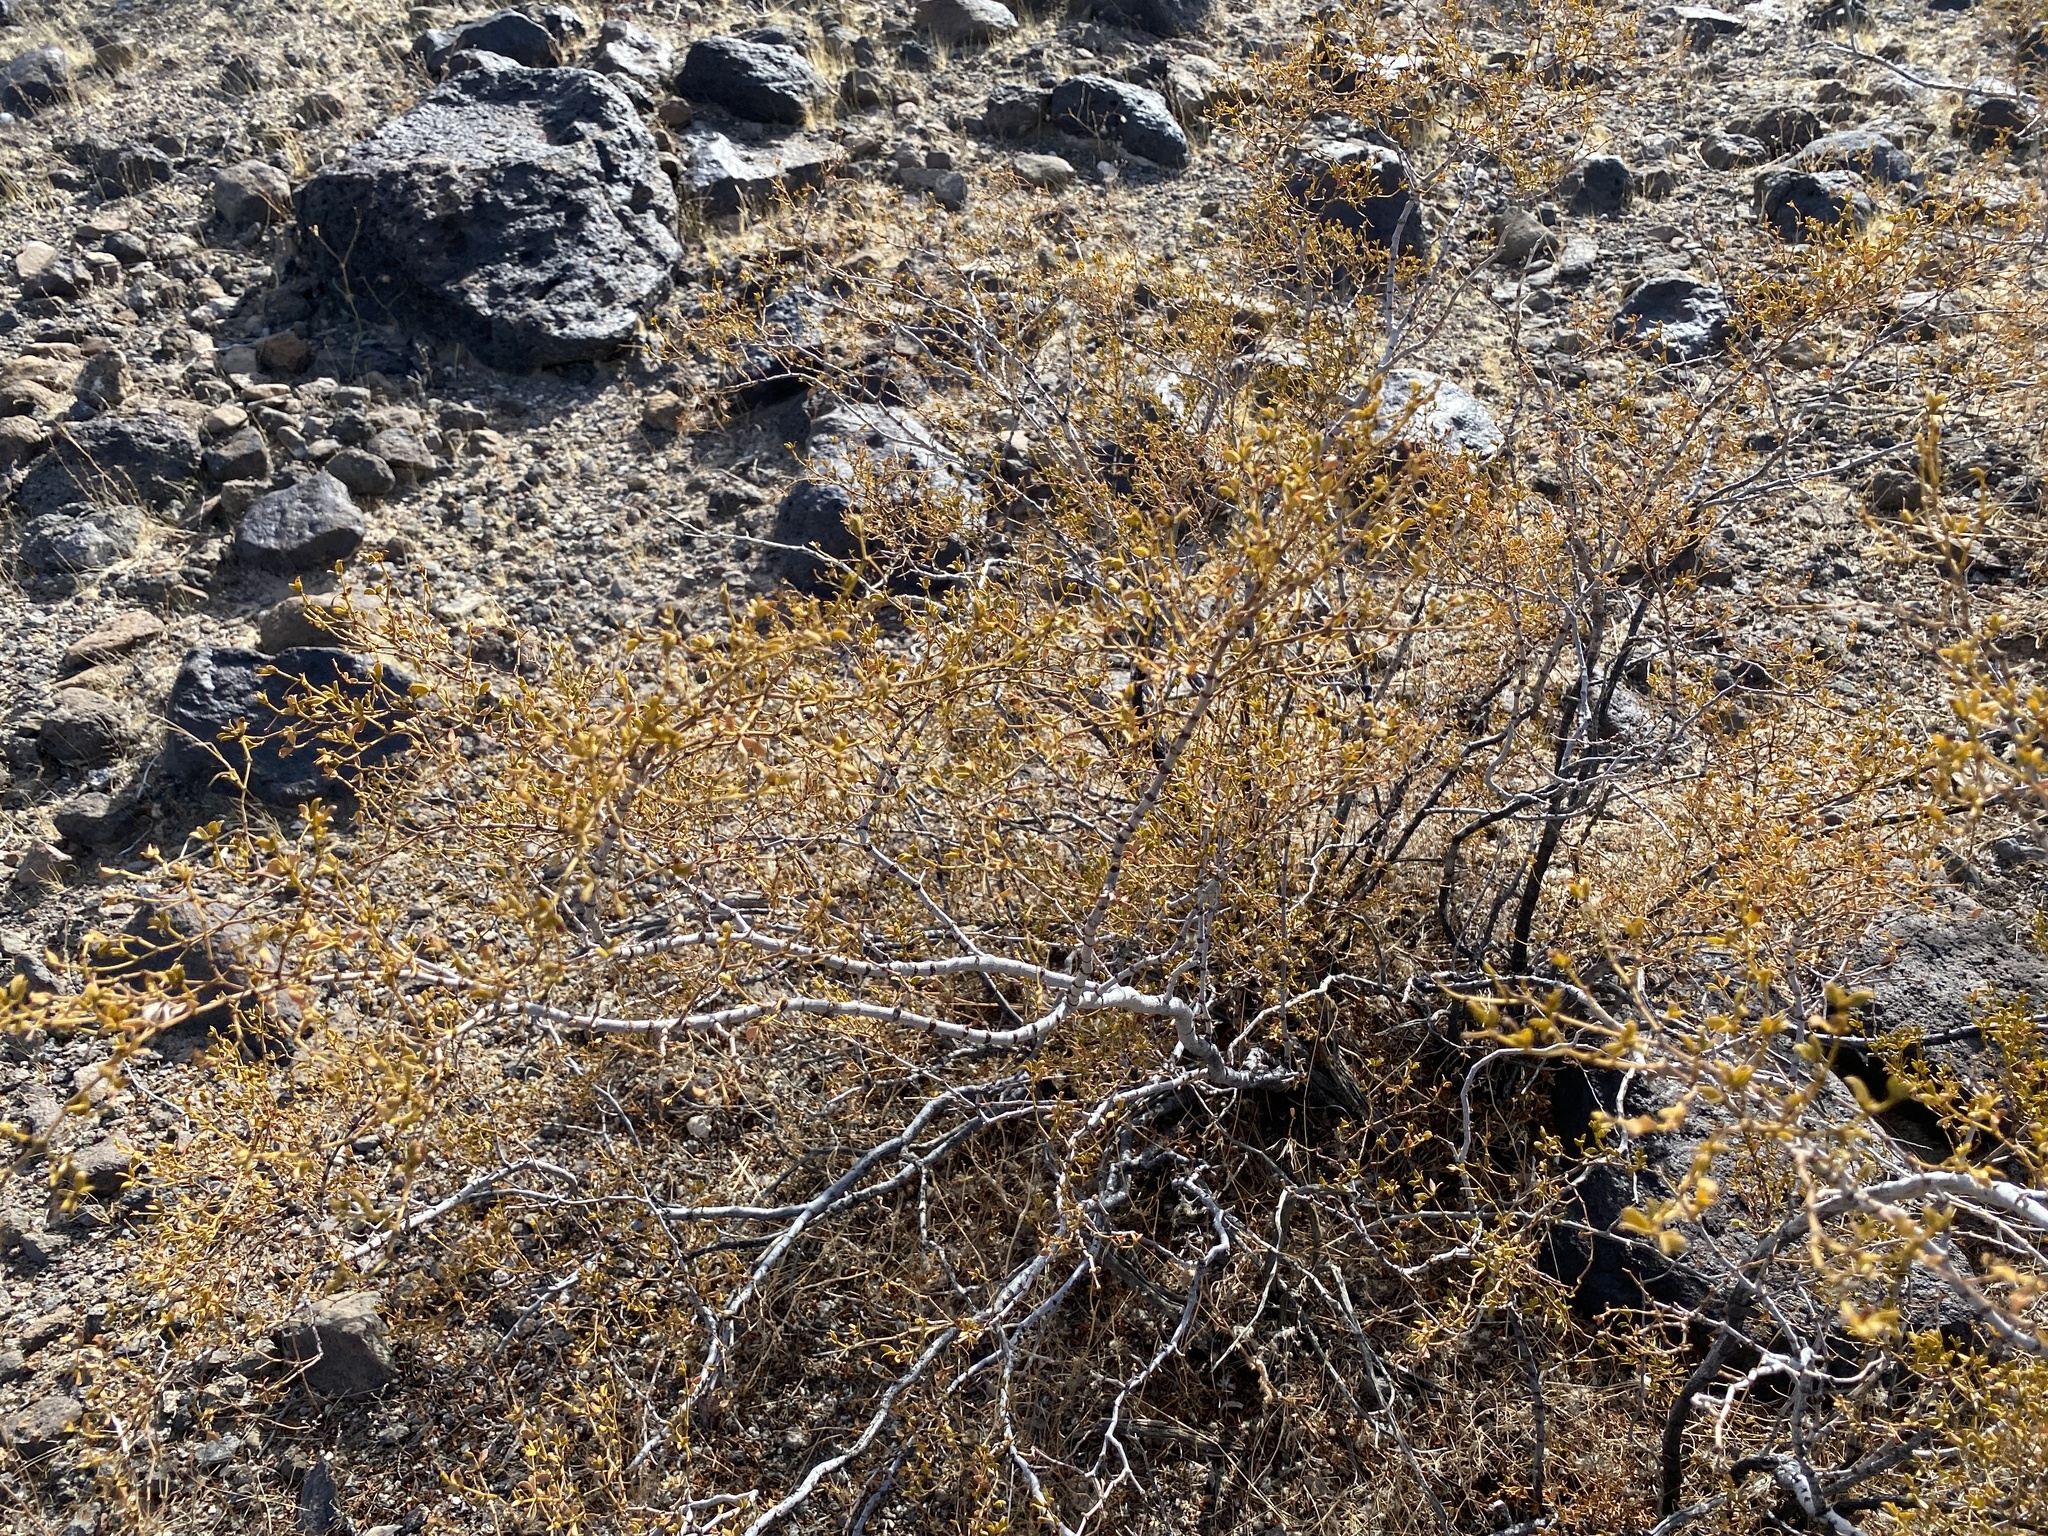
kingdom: Plantae
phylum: Tracheophyta
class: Magnoliopsida
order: Zygophyllales
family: Zygophyllaceae
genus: Larrea
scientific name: Larrea tridentata
